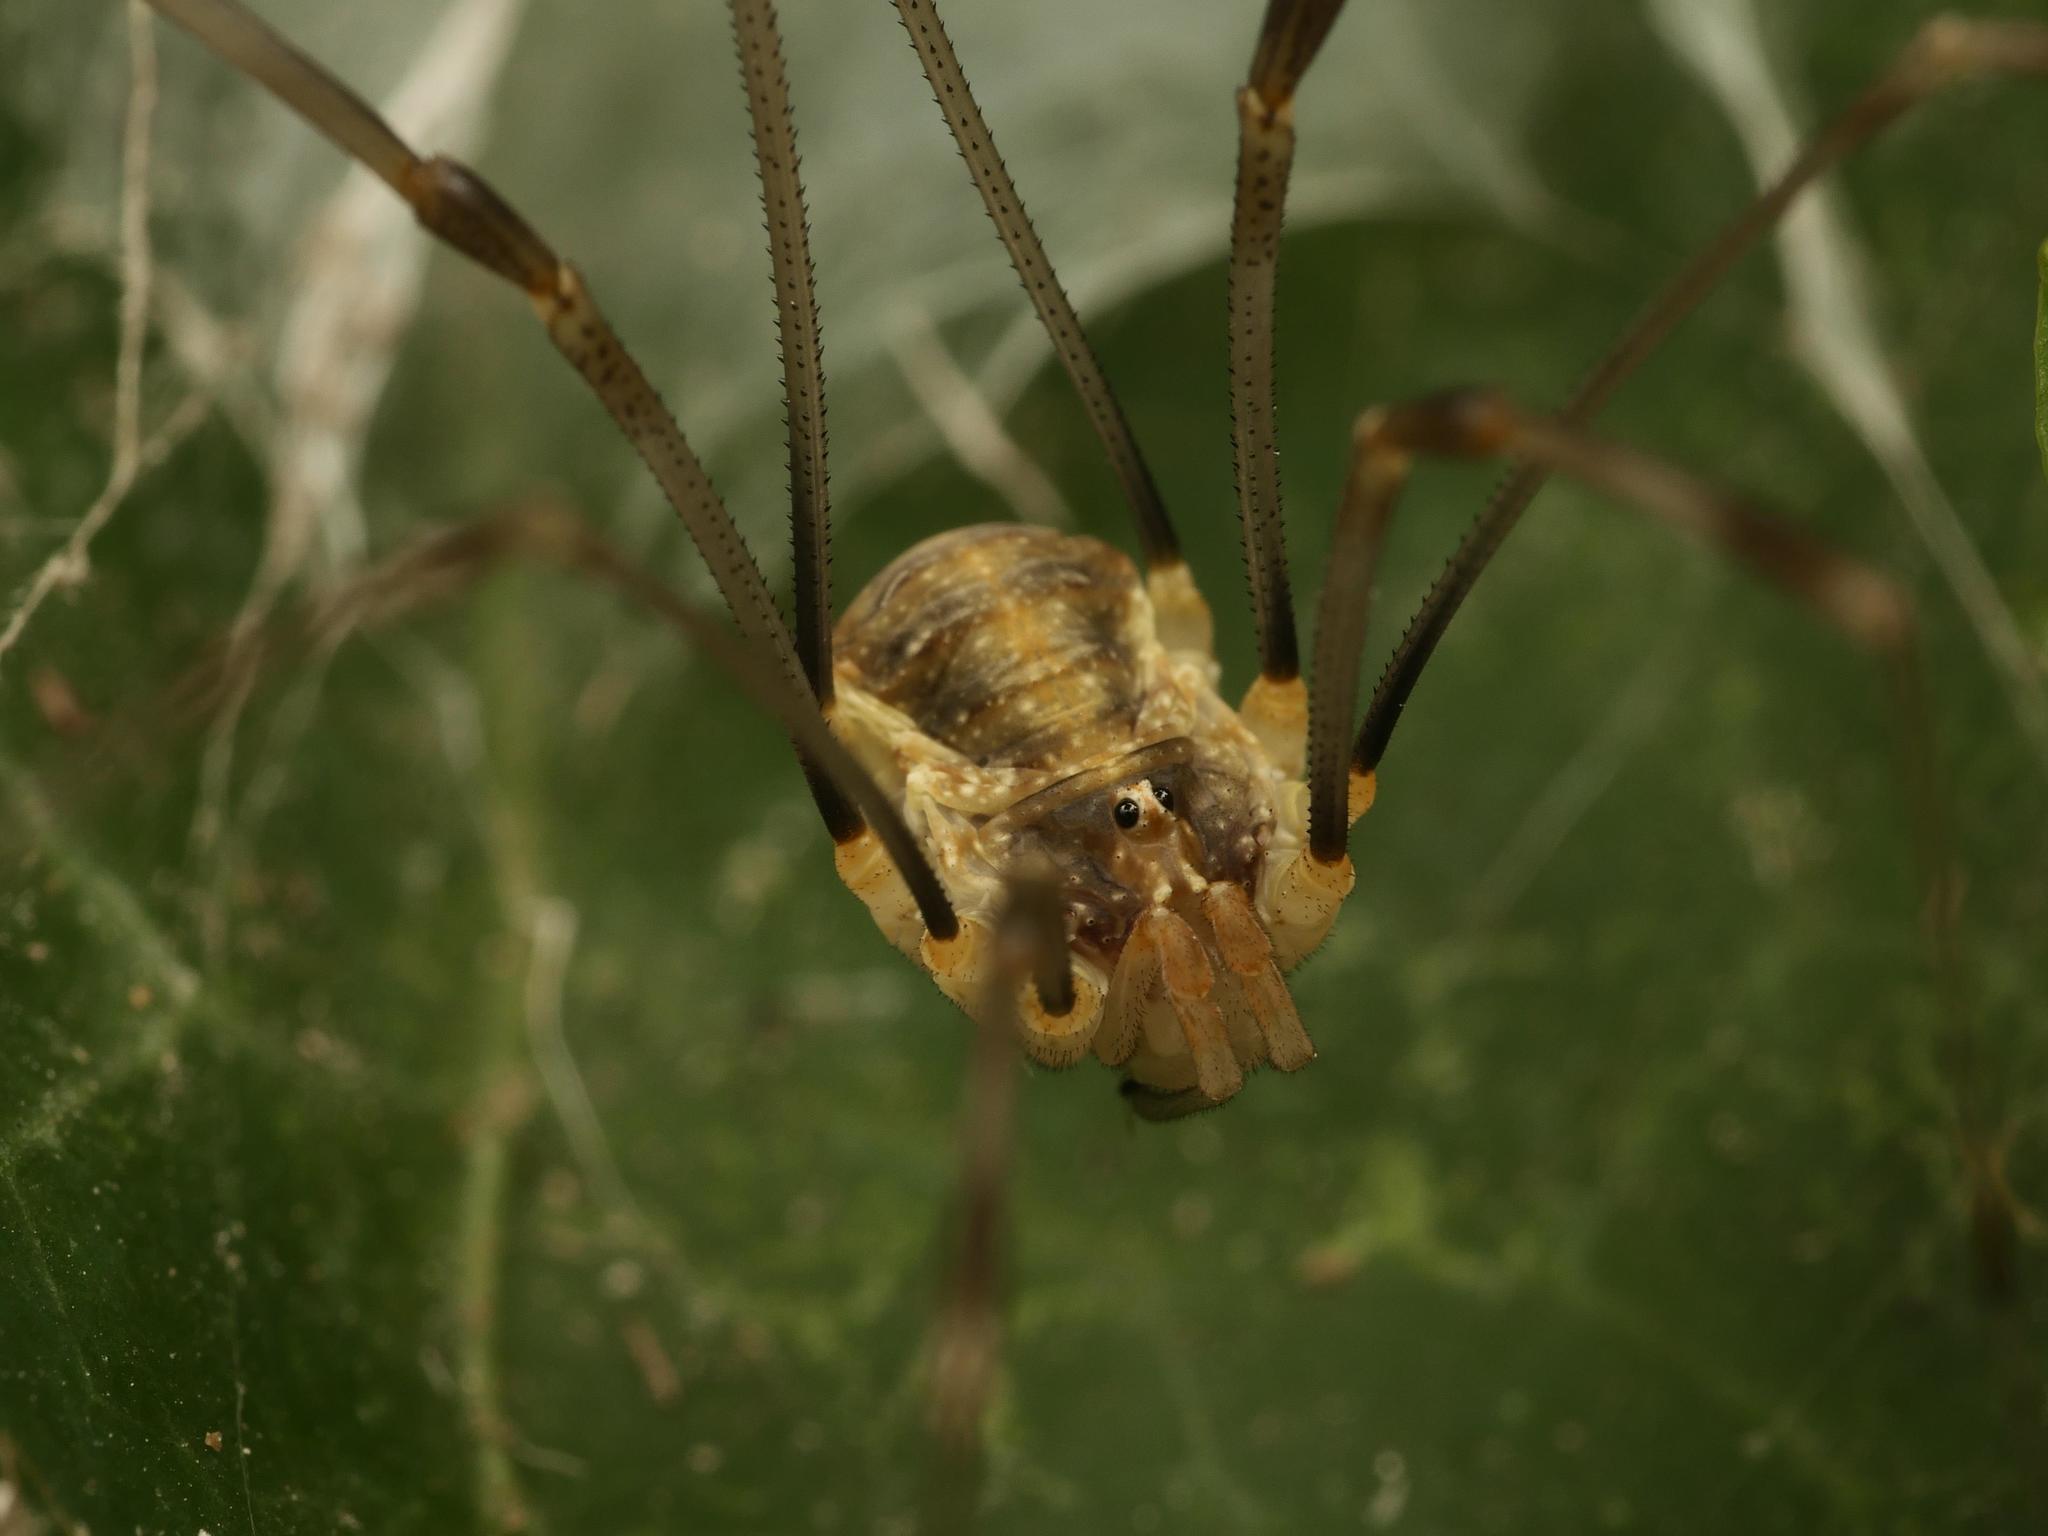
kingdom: Animalia
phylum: Arthropoda
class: Arachnida
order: Opiliones
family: Phalangiidae
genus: Opilio
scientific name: Opilio canestrinii
